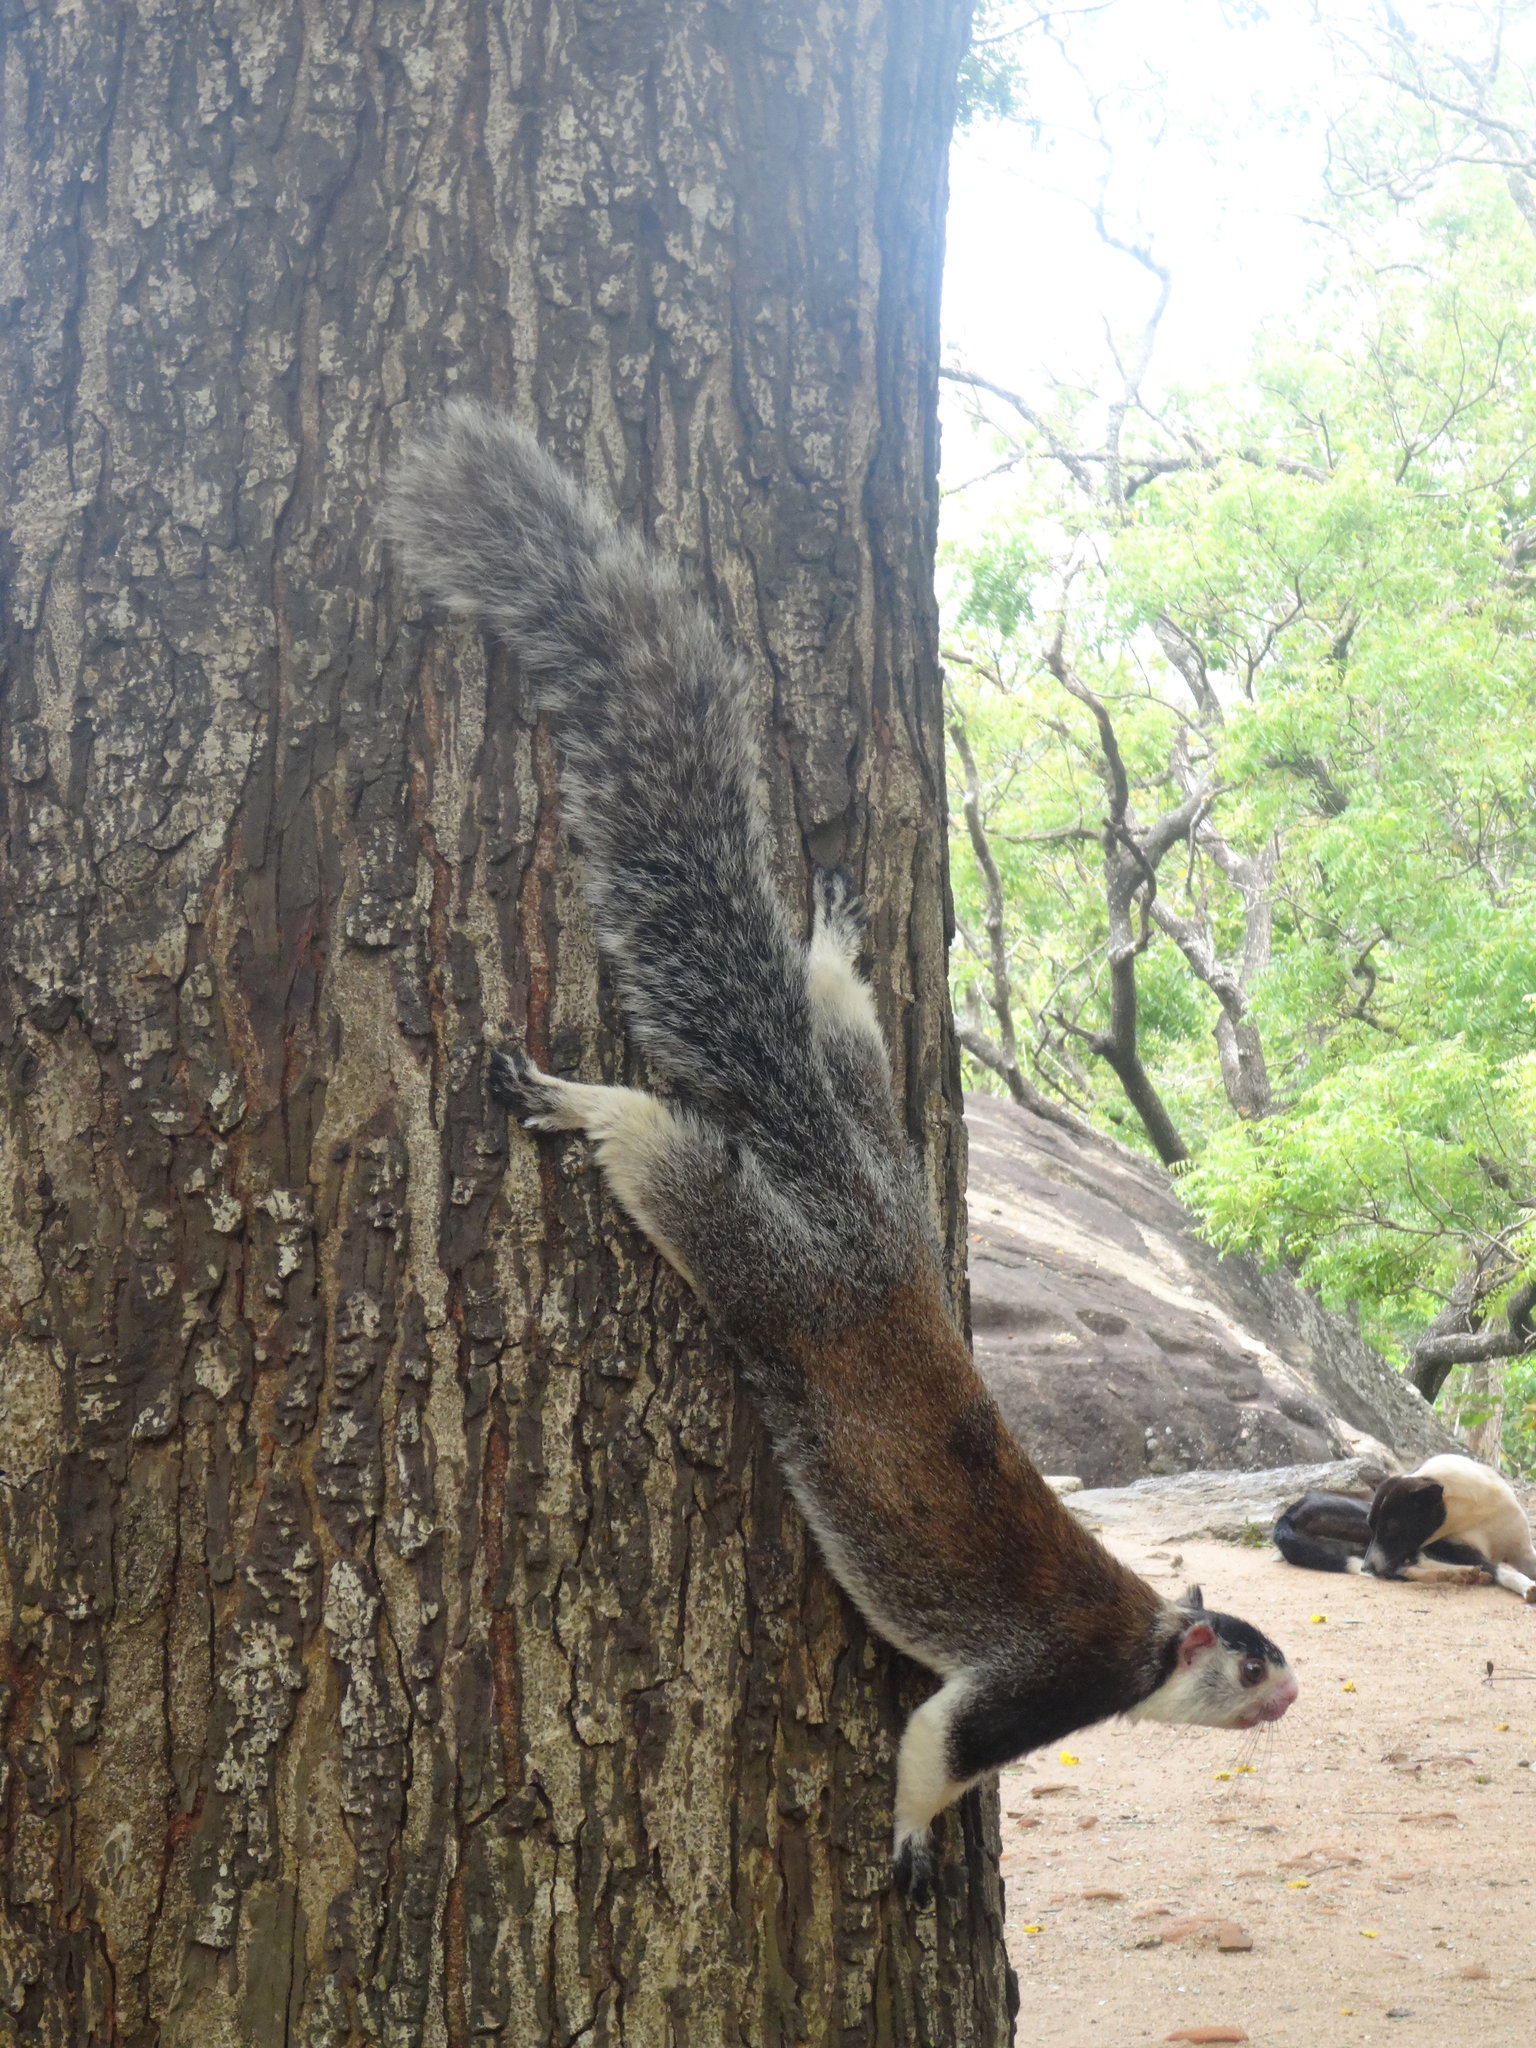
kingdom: Animalia
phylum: Chordata
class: Mammalia
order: Rodentia
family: Sciuridae
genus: Ratufa
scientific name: Ratufa macroura
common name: Sri lankan giant squirrel
